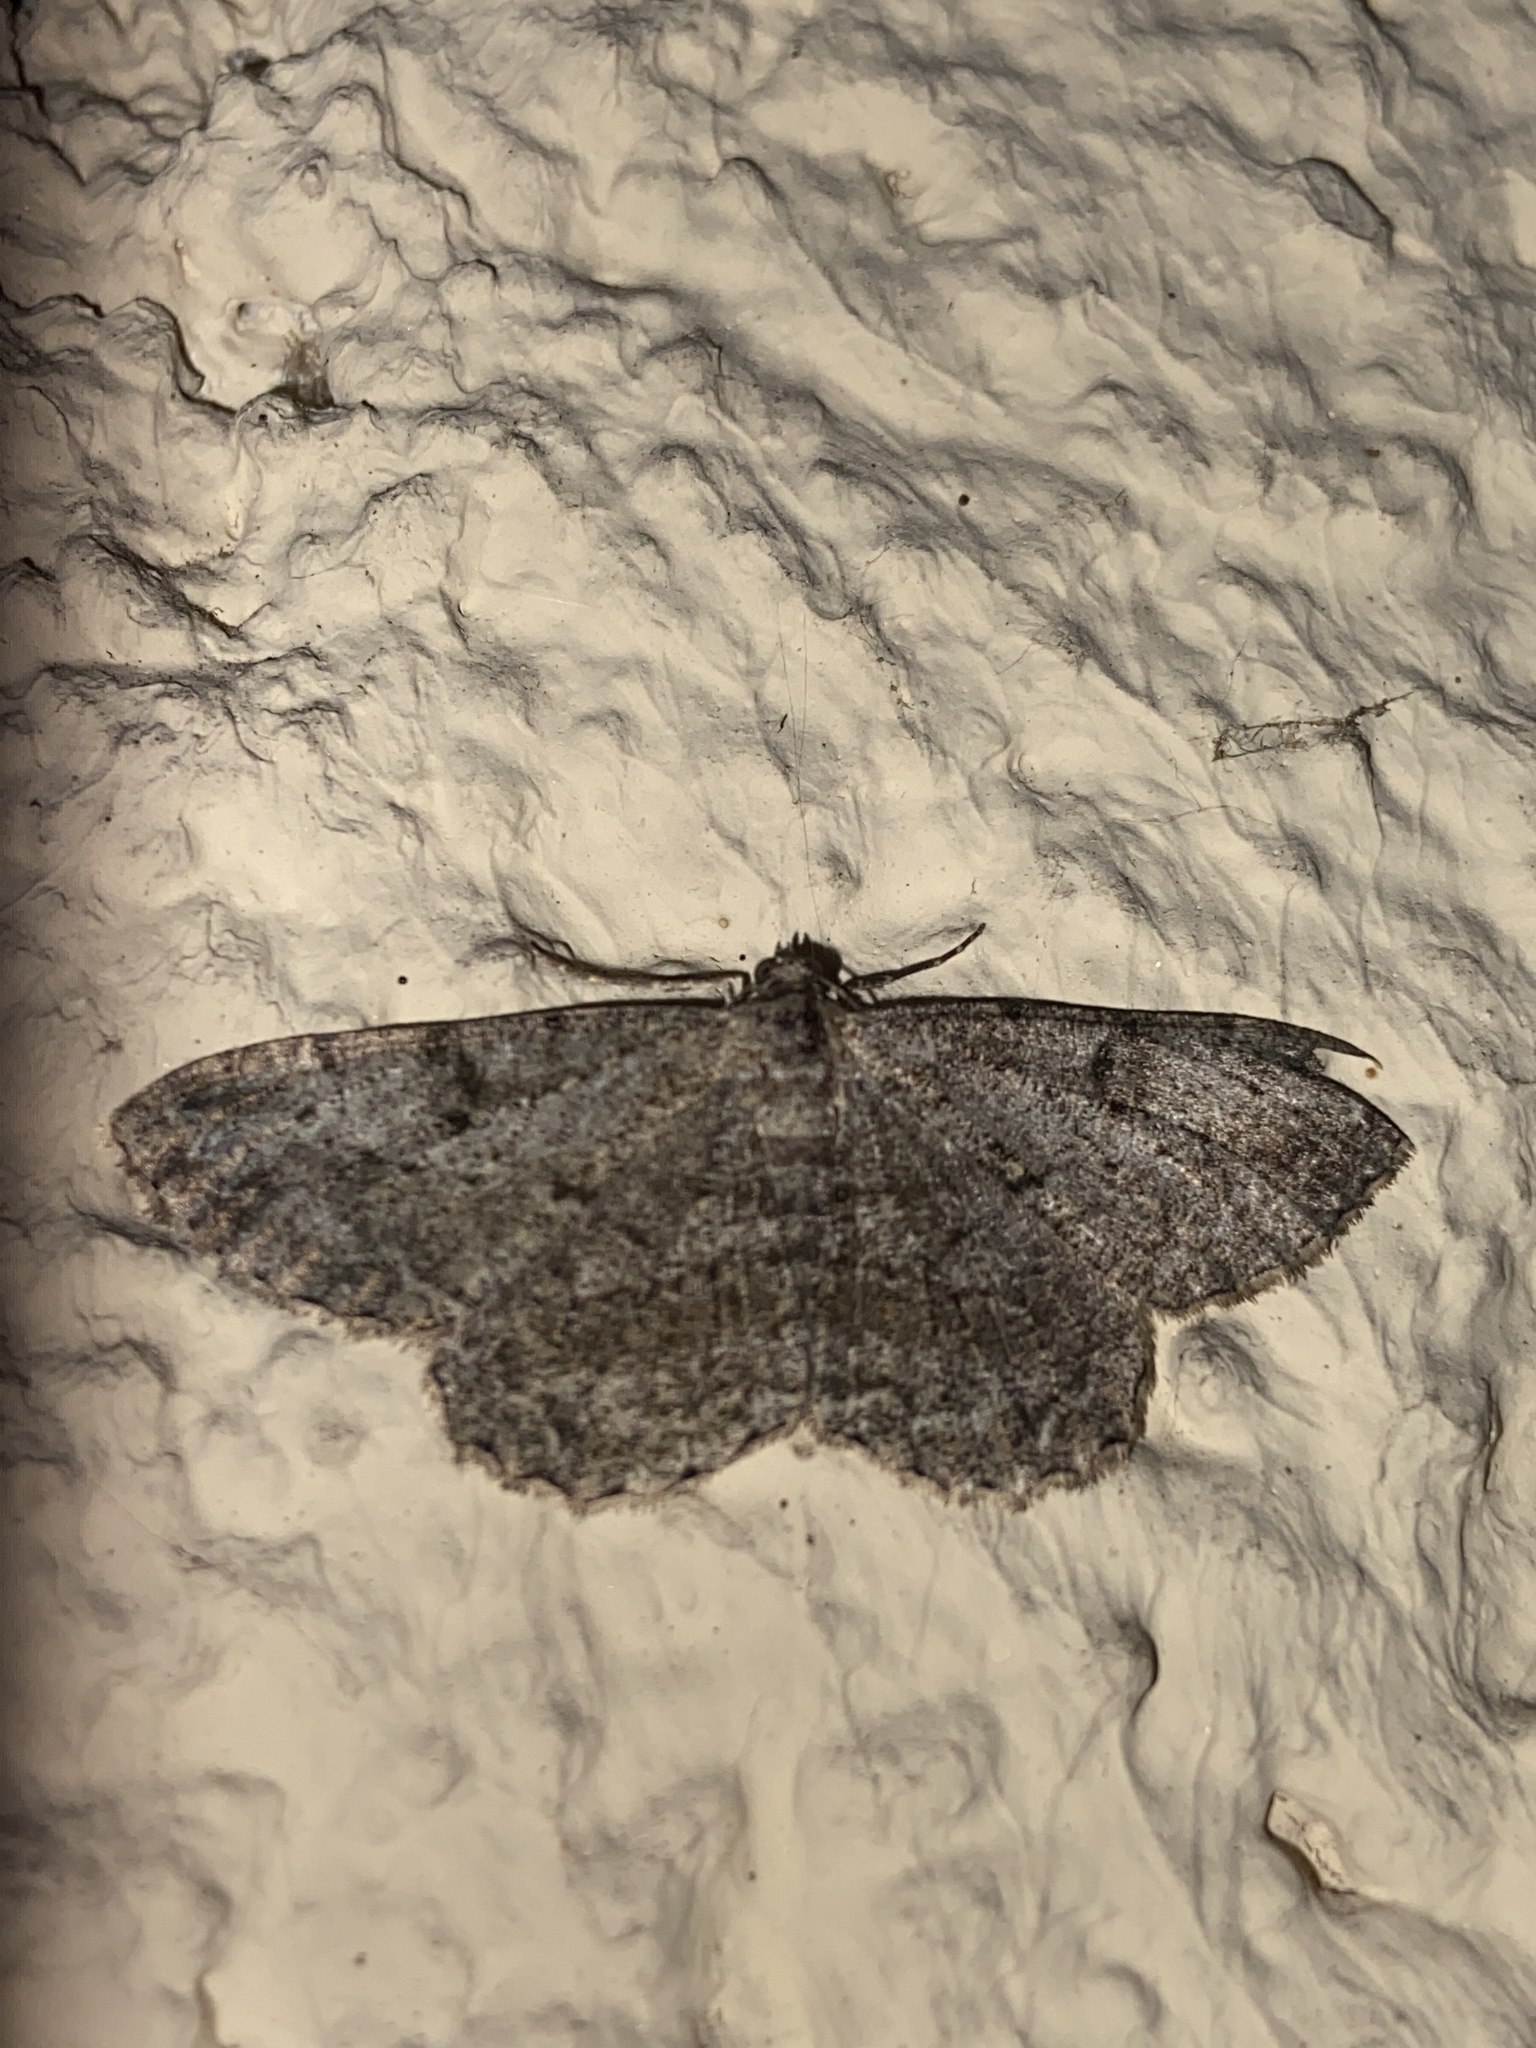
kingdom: Animalia
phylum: Arthropoda
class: Insecta
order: Lepidoptera
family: Geometridae
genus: Peribatodes
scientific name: Peribatodes rhomboidaria
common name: Willow beauty
